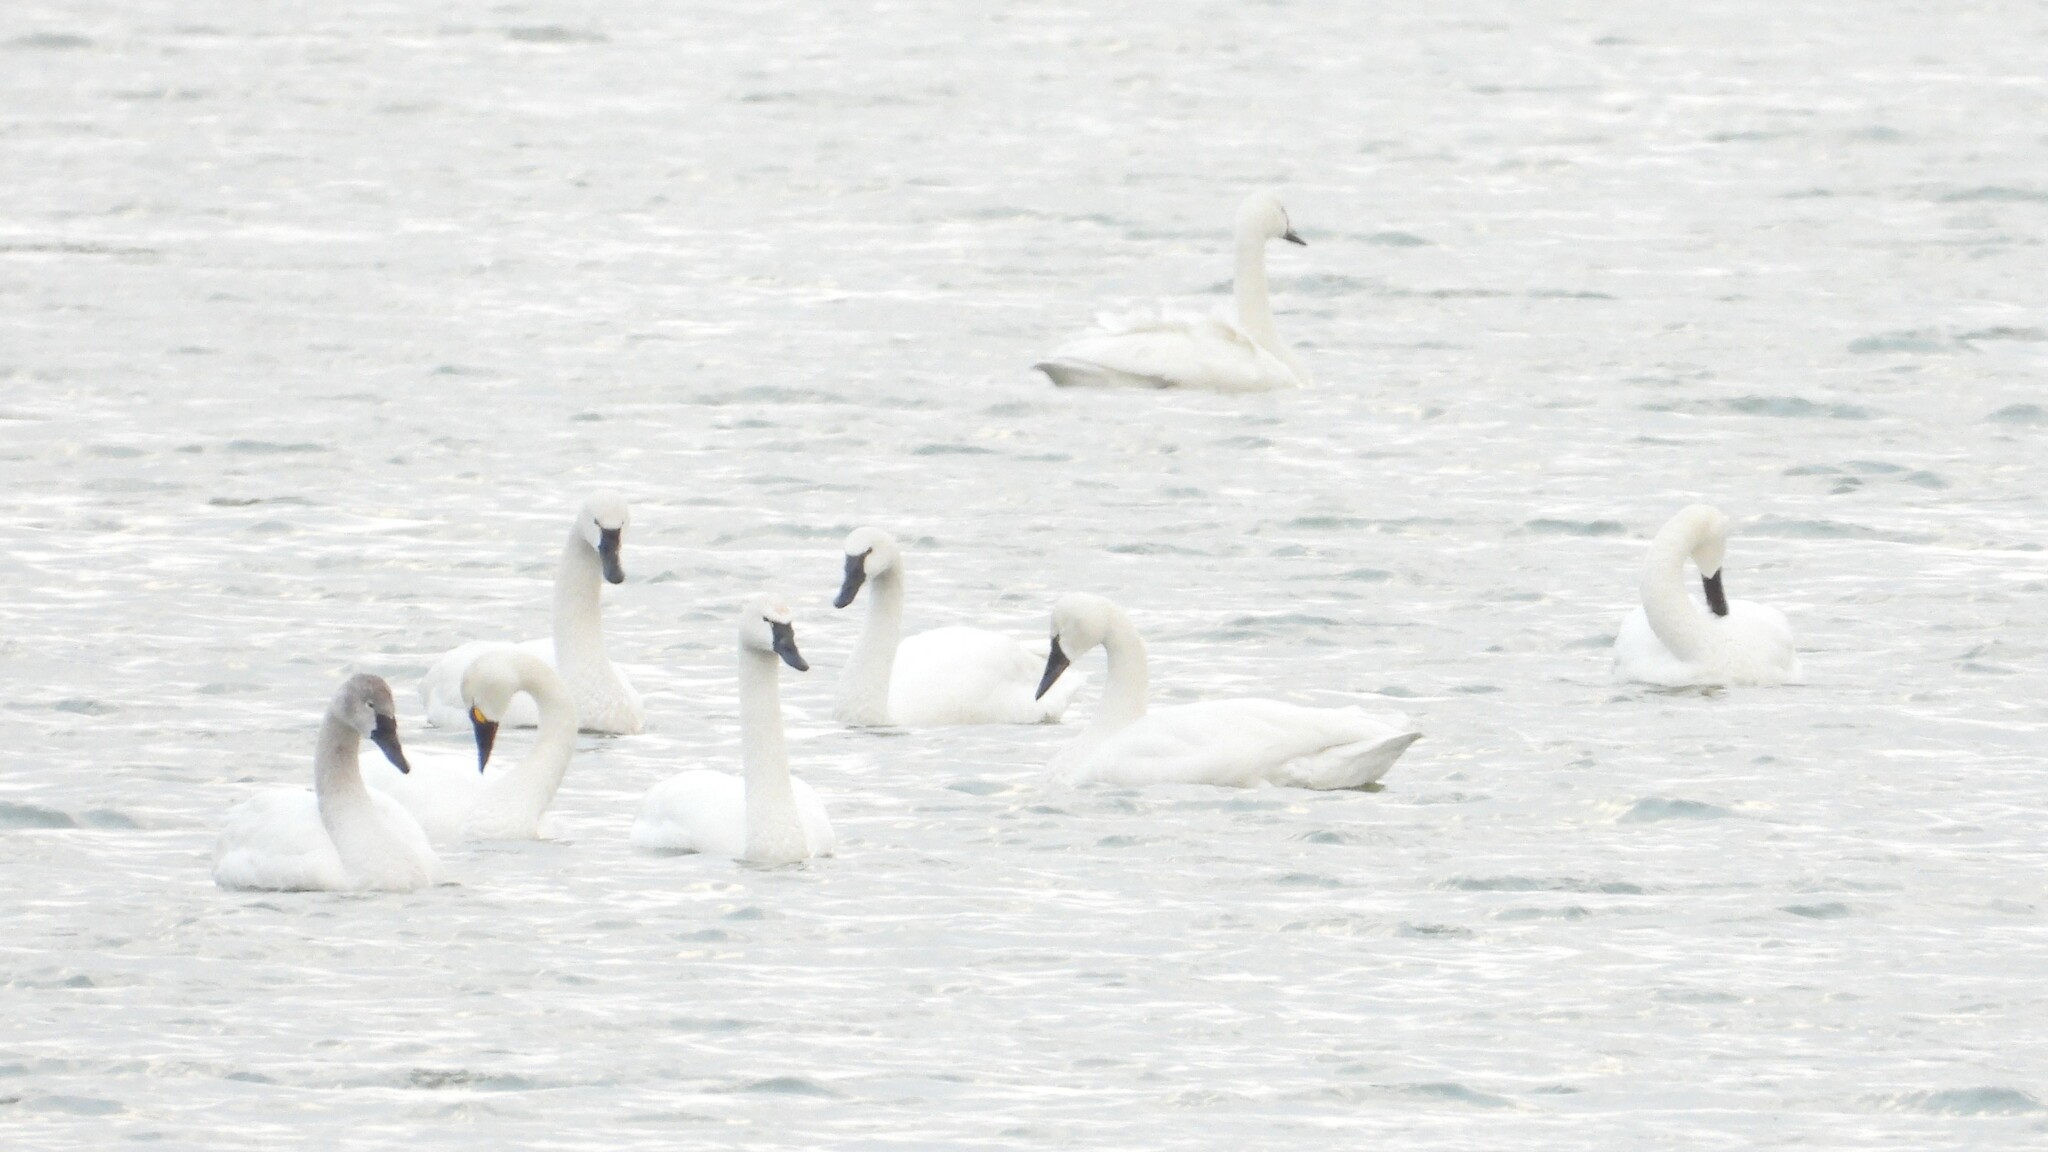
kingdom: Animalia
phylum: Chordata
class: Aves
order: Anseriformes
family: Anatidae
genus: Cygnus
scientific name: Cygnus columbianus
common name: Tundra swan
